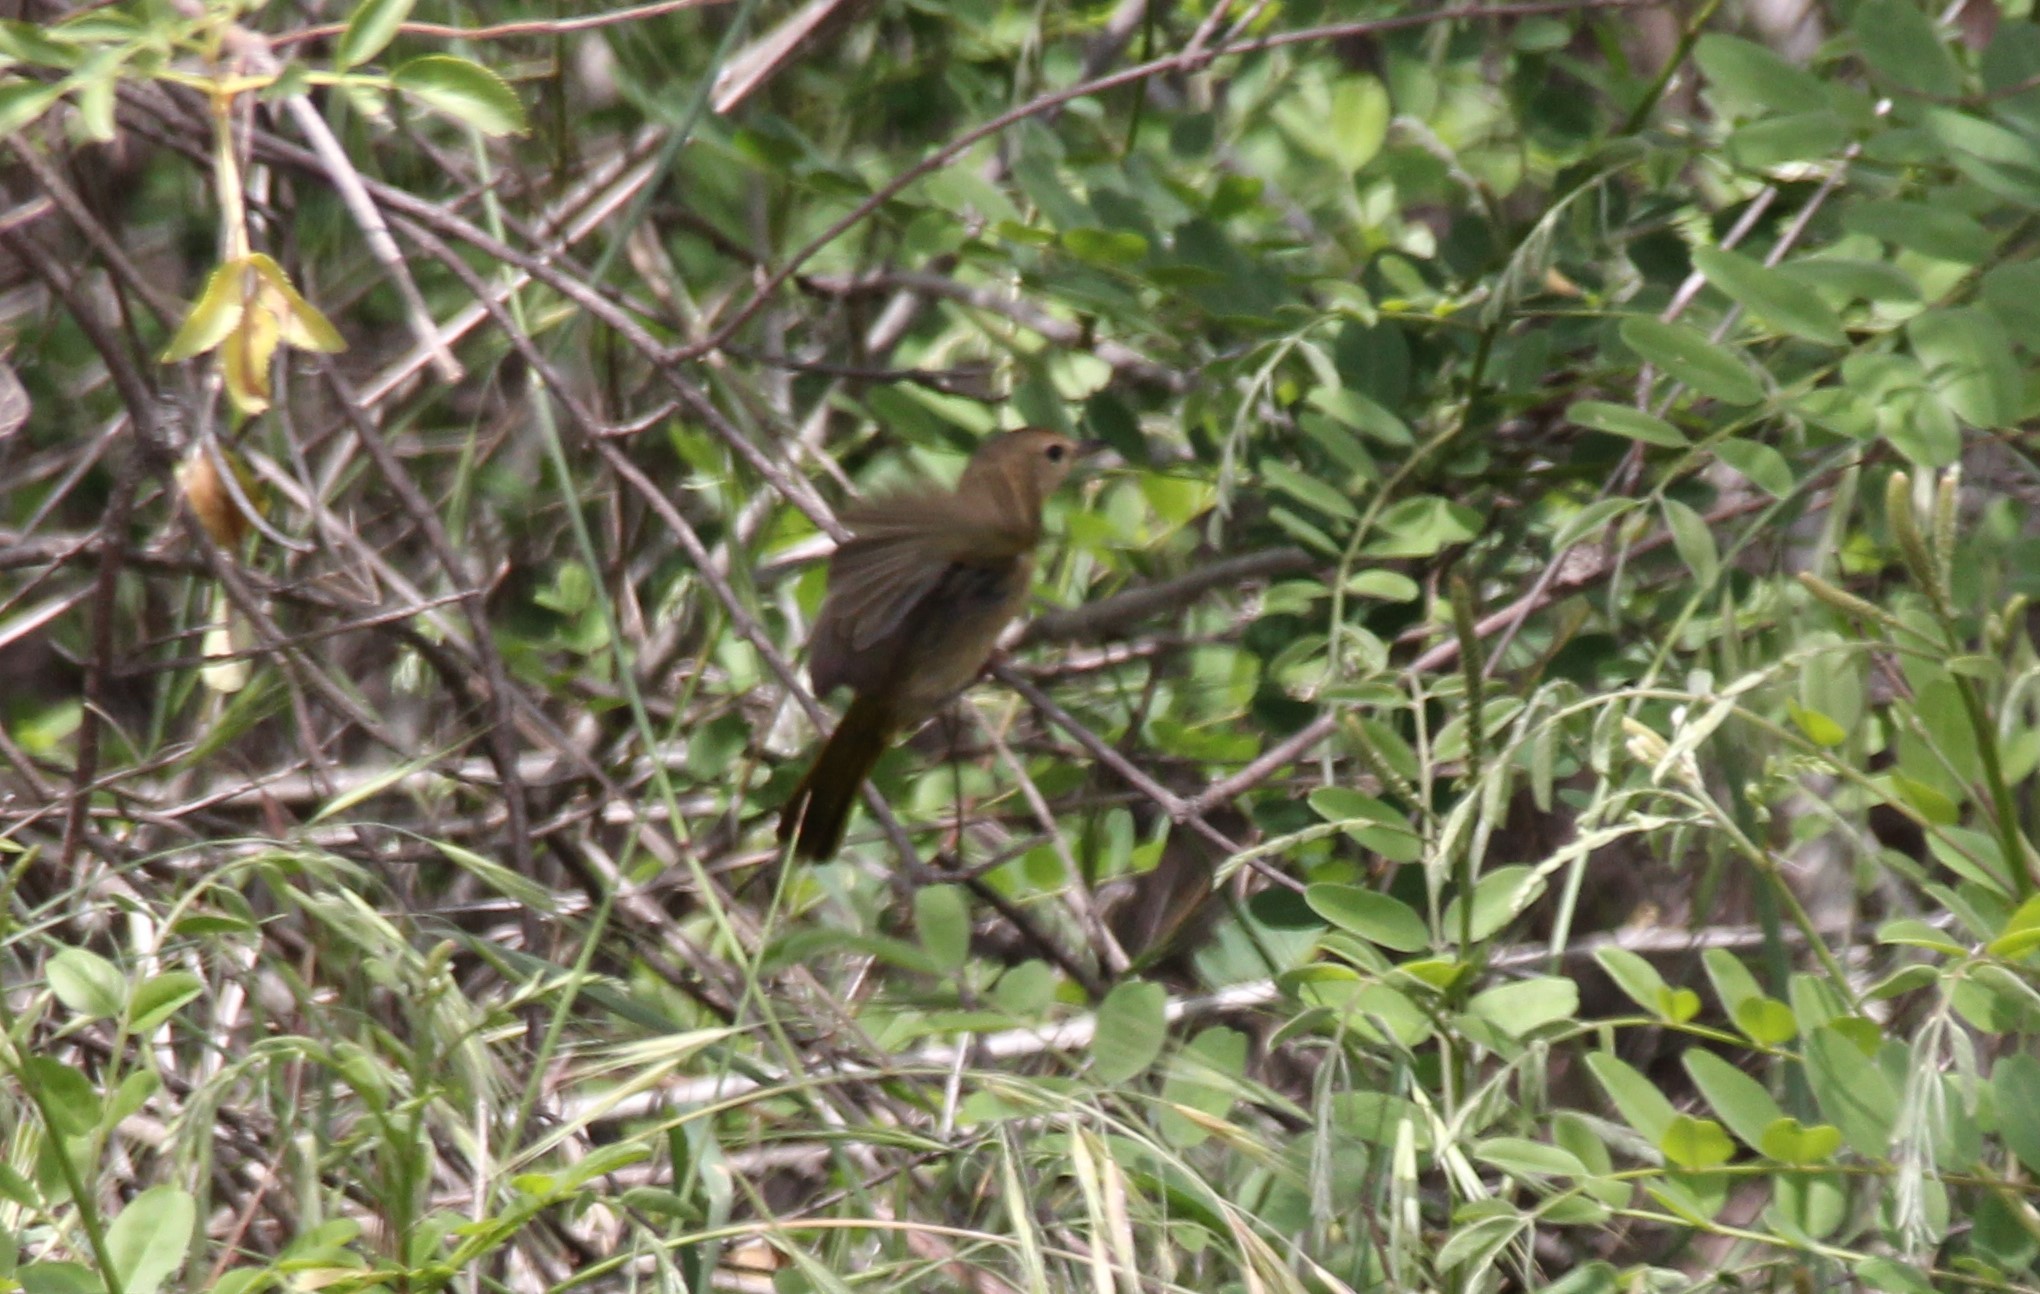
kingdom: Animalia
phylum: Chordata
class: Aves
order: Passeriformes
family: Parulidae
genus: Geothlypis
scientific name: Geothlypis trichas
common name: Common yellowthroat
